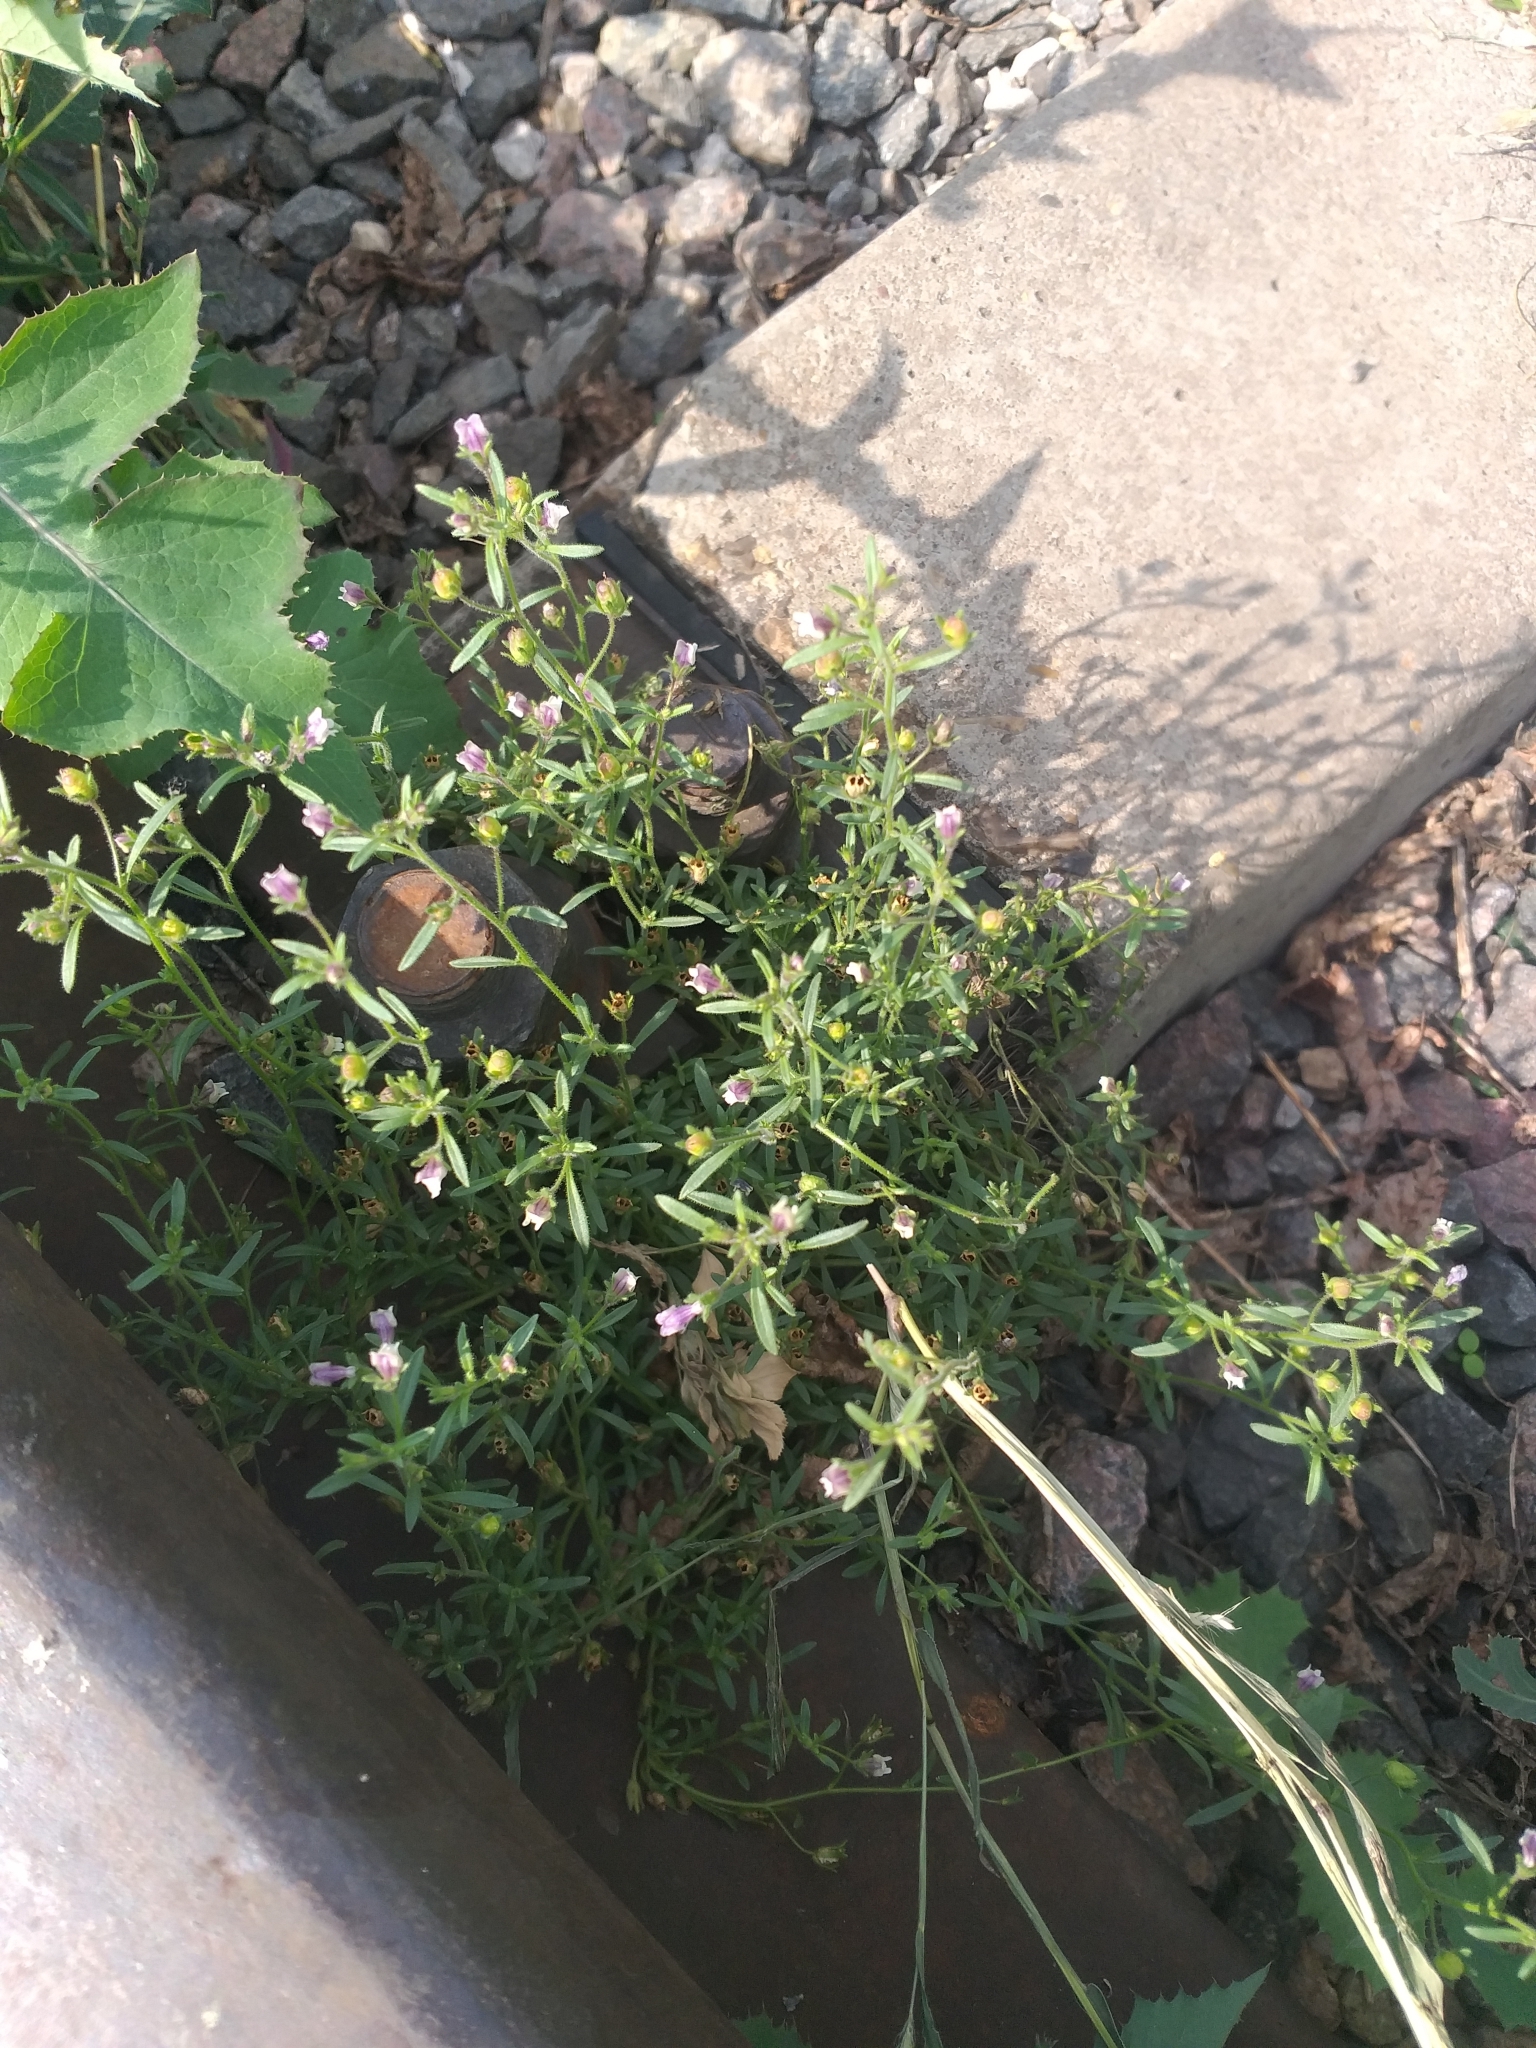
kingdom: Plantae
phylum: Tracheophyta
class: Magnoliopsida
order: Lamiales
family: Plantaginaceae
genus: Chaenorhinum
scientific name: Chaenorhinum minus
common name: Dwarf snapdragon
